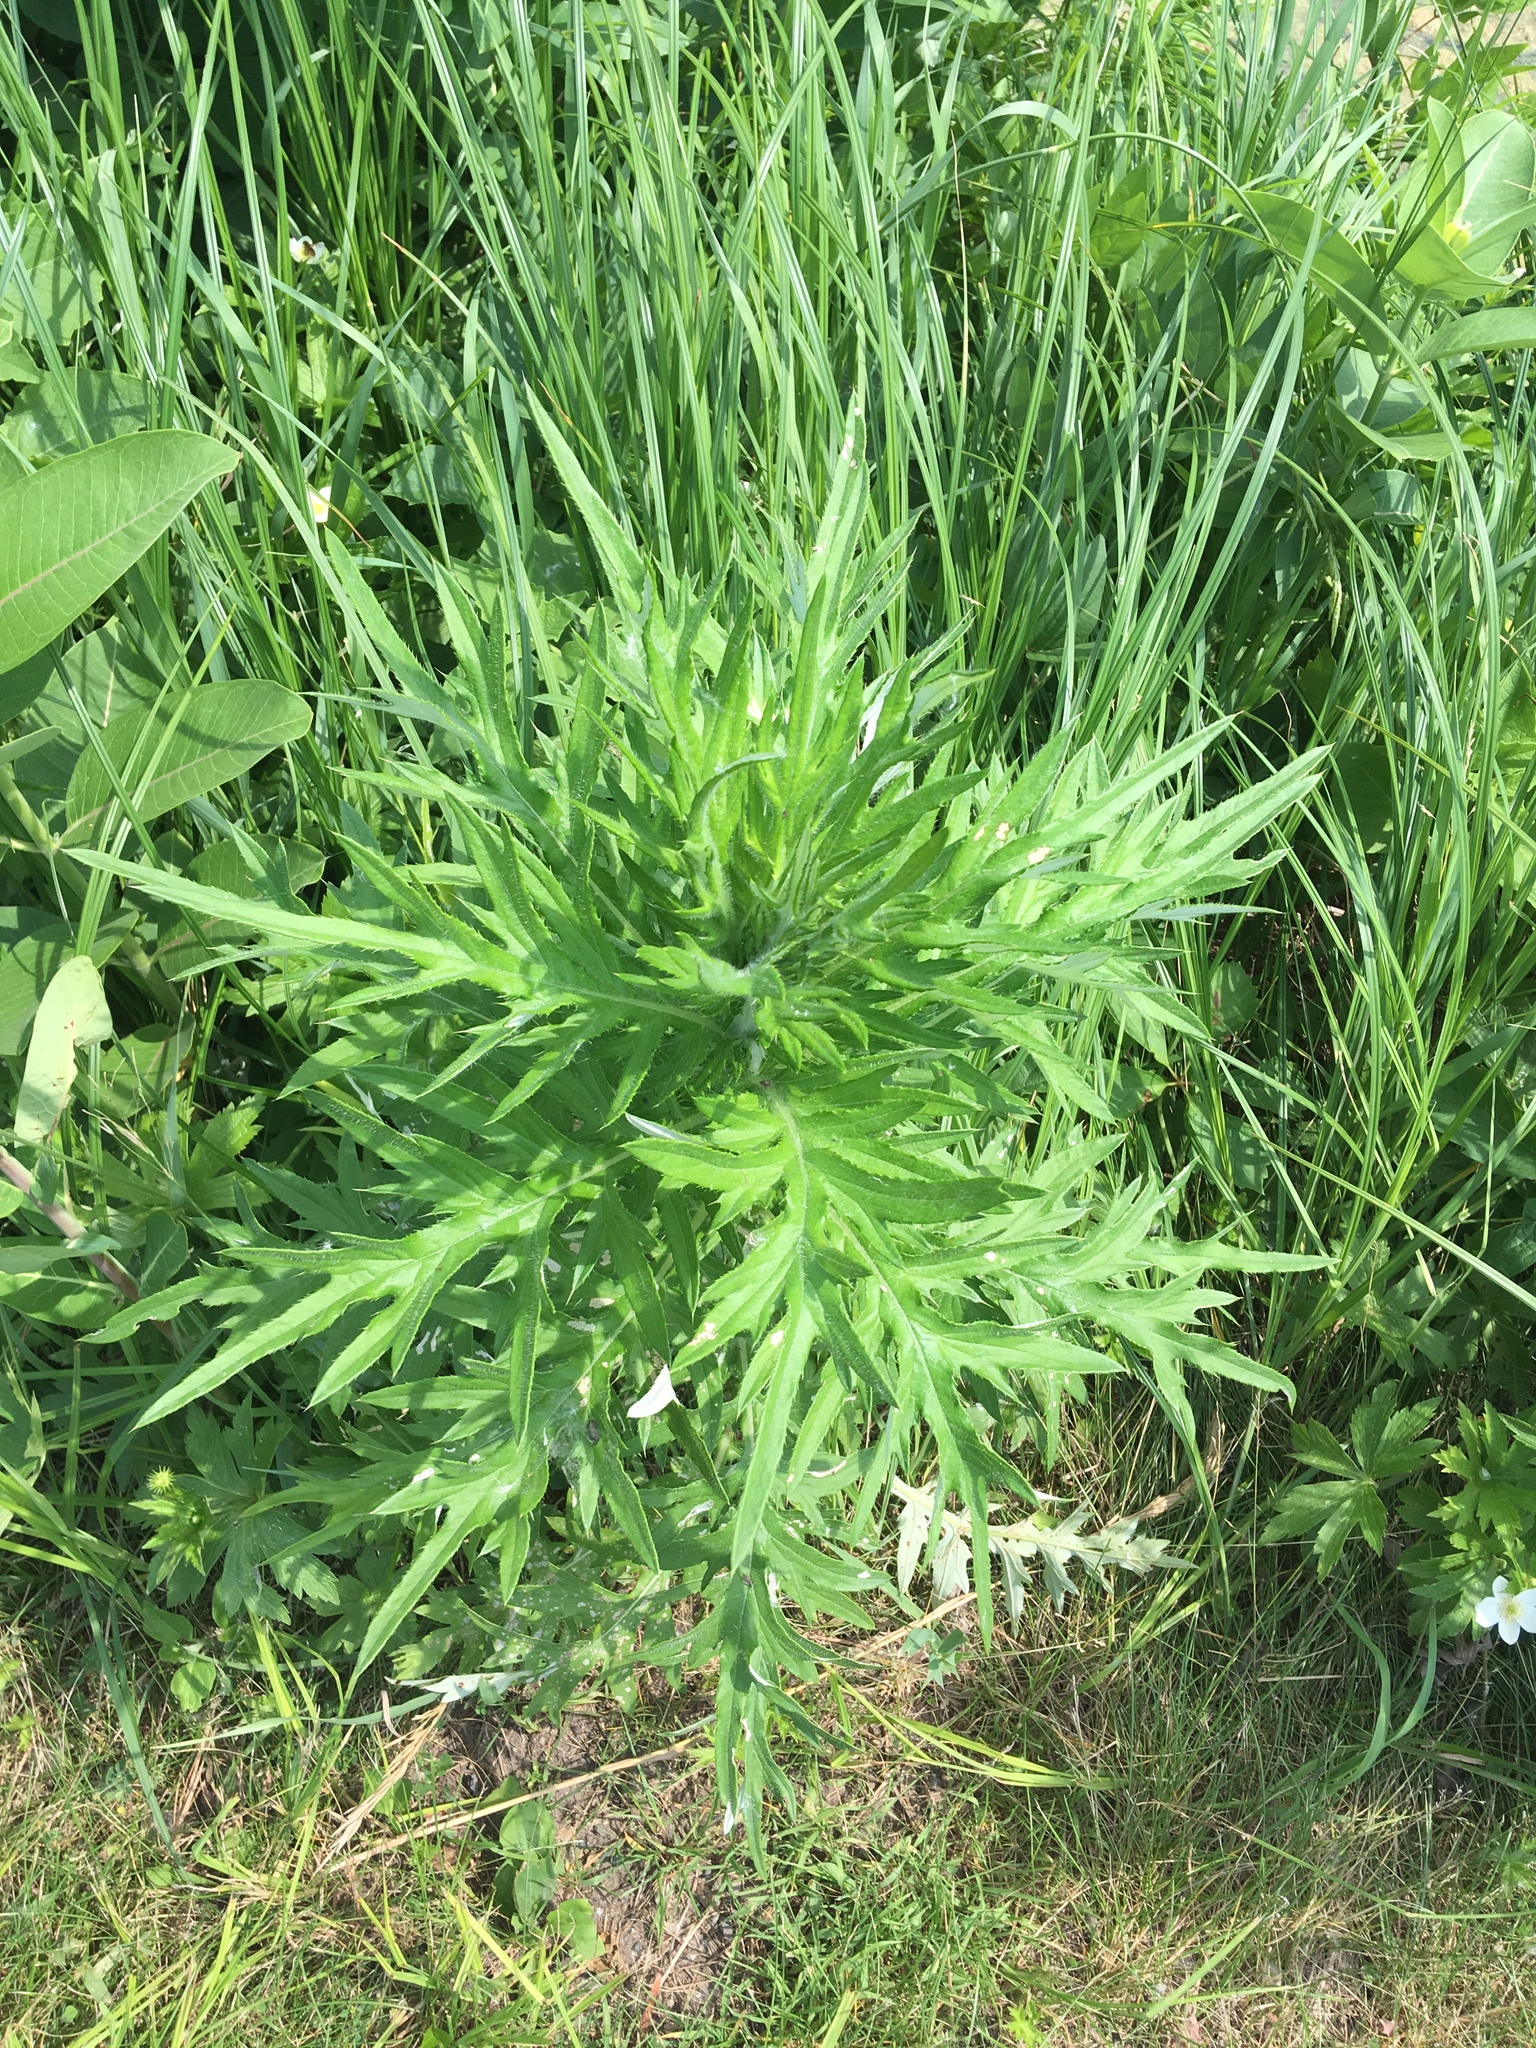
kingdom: Plantae
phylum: Tracheophyta
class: Magnoliopsida
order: Asterales
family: Asteraceae
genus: Cirsium
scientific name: Cirsium discolor
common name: Field thistle
